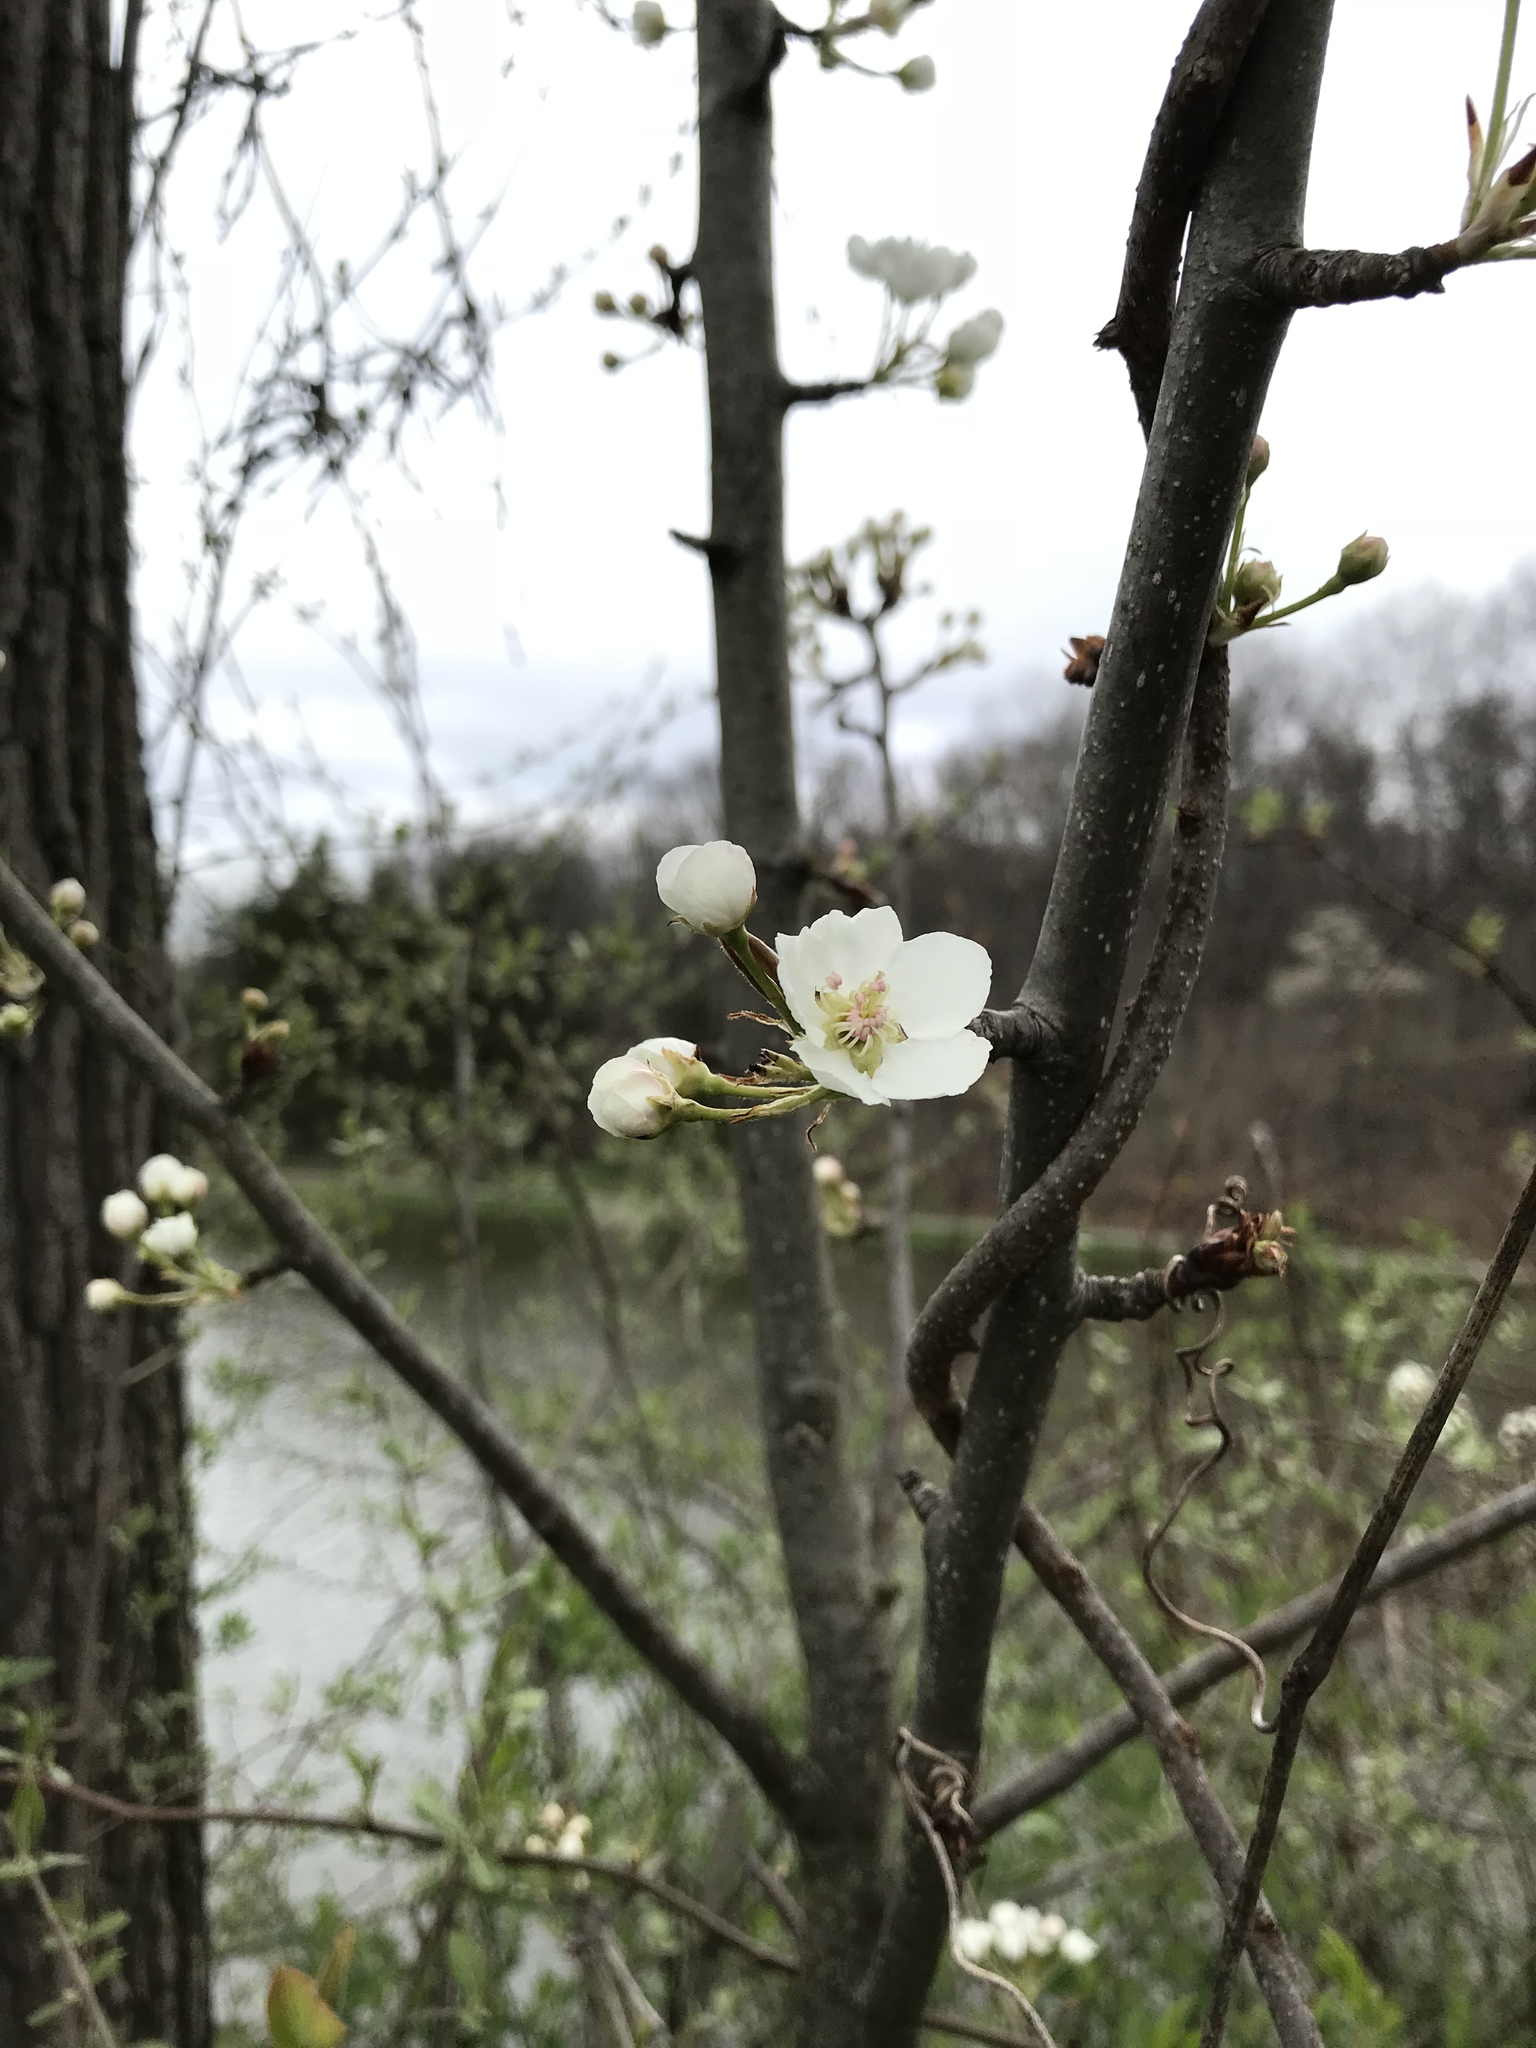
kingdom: Plantae
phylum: Tracheophyta
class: Magnoliopsida
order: Rosales
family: Rosaceae
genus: Prunus
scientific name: Prunus avium
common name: Sweet cherry
